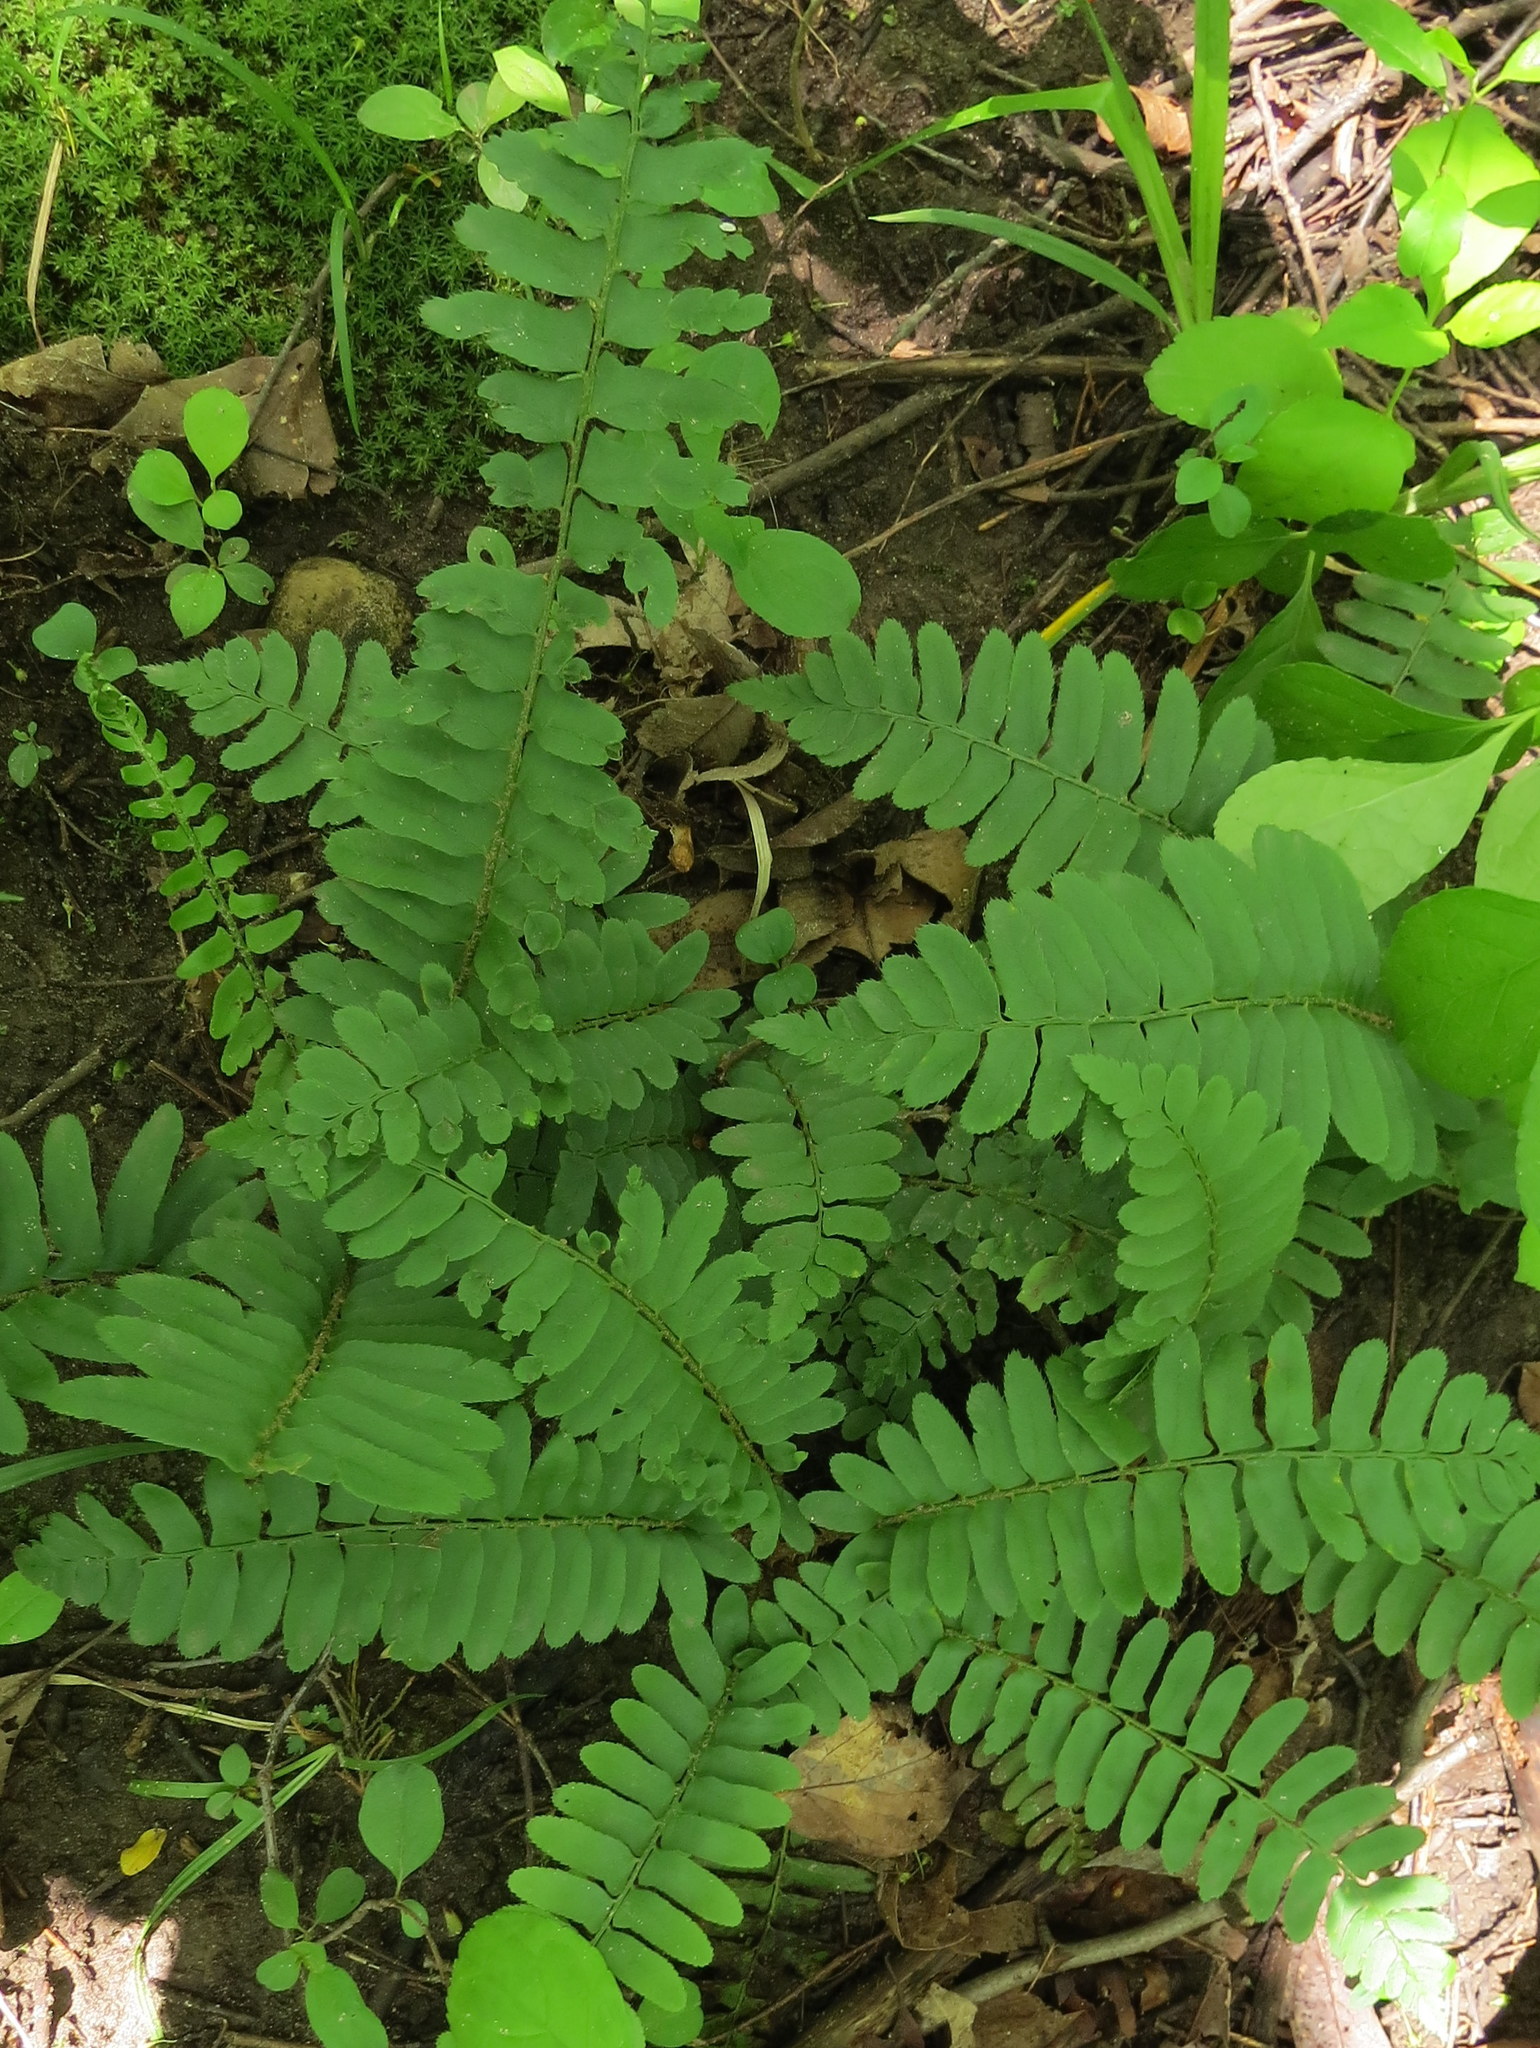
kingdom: Plantae
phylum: Tracheophyta
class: Polypodiopsida
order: Polypodiales
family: Dryopteridaceae
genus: Polystichum
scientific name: Polystichum acrostichoides
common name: Christmas fern
